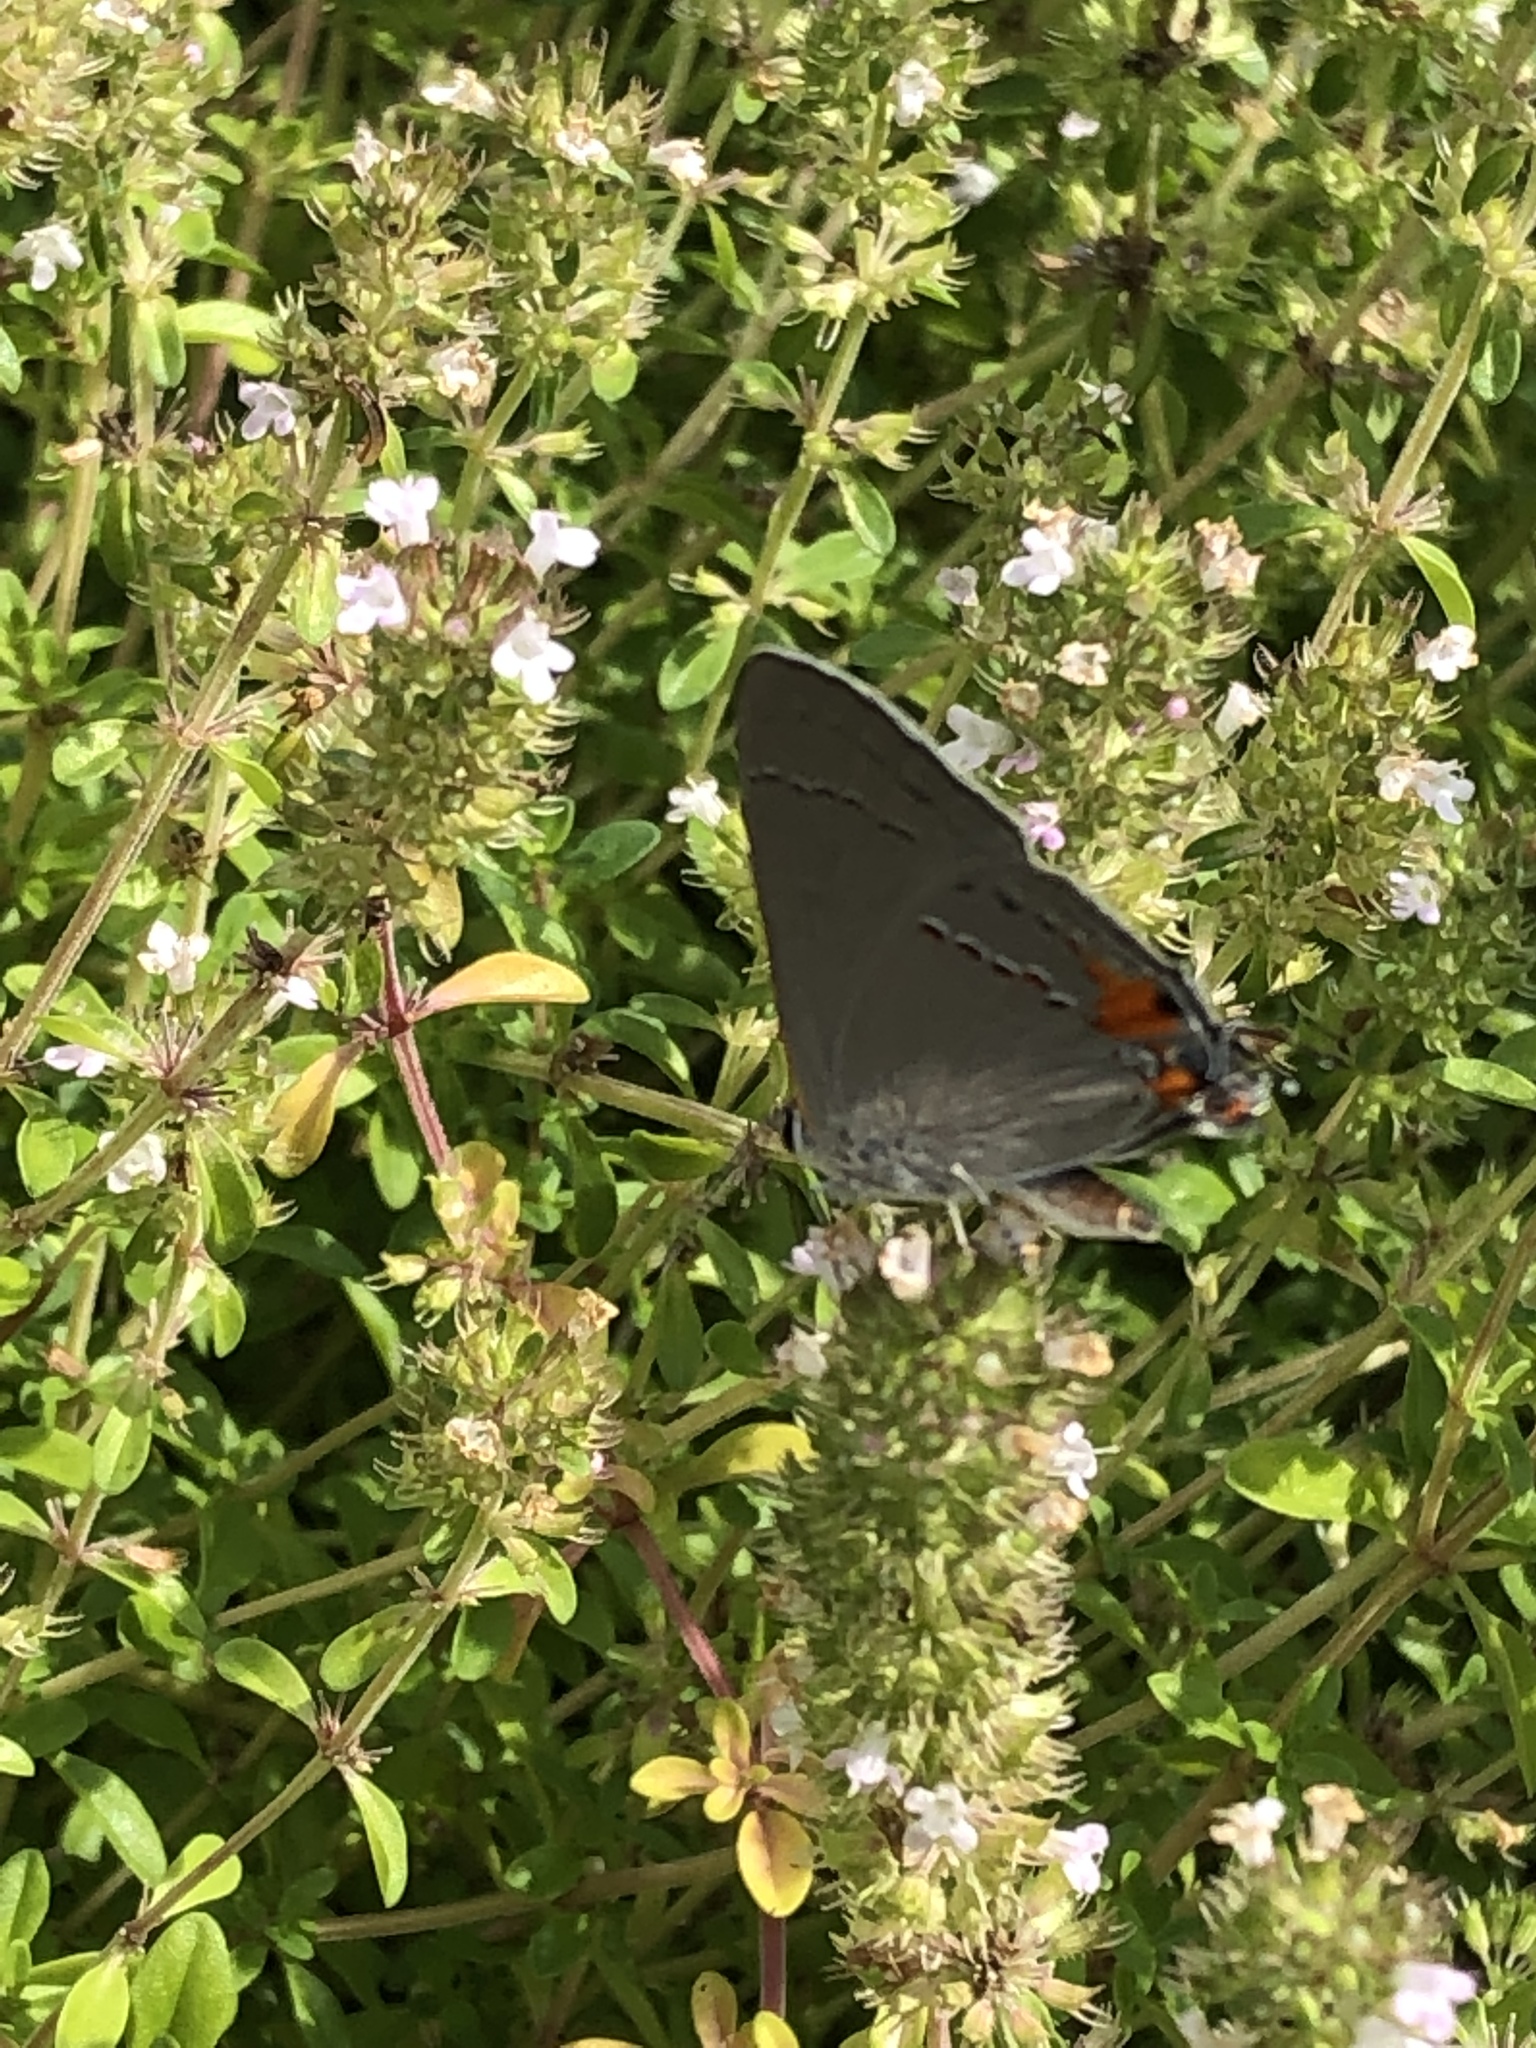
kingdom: Animalia
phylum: Arthropoda
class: Insecta
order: Lepidoptera
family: Lycaenidae
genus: Strymon
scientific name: Strymon melinus
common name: Gray hairstreak
